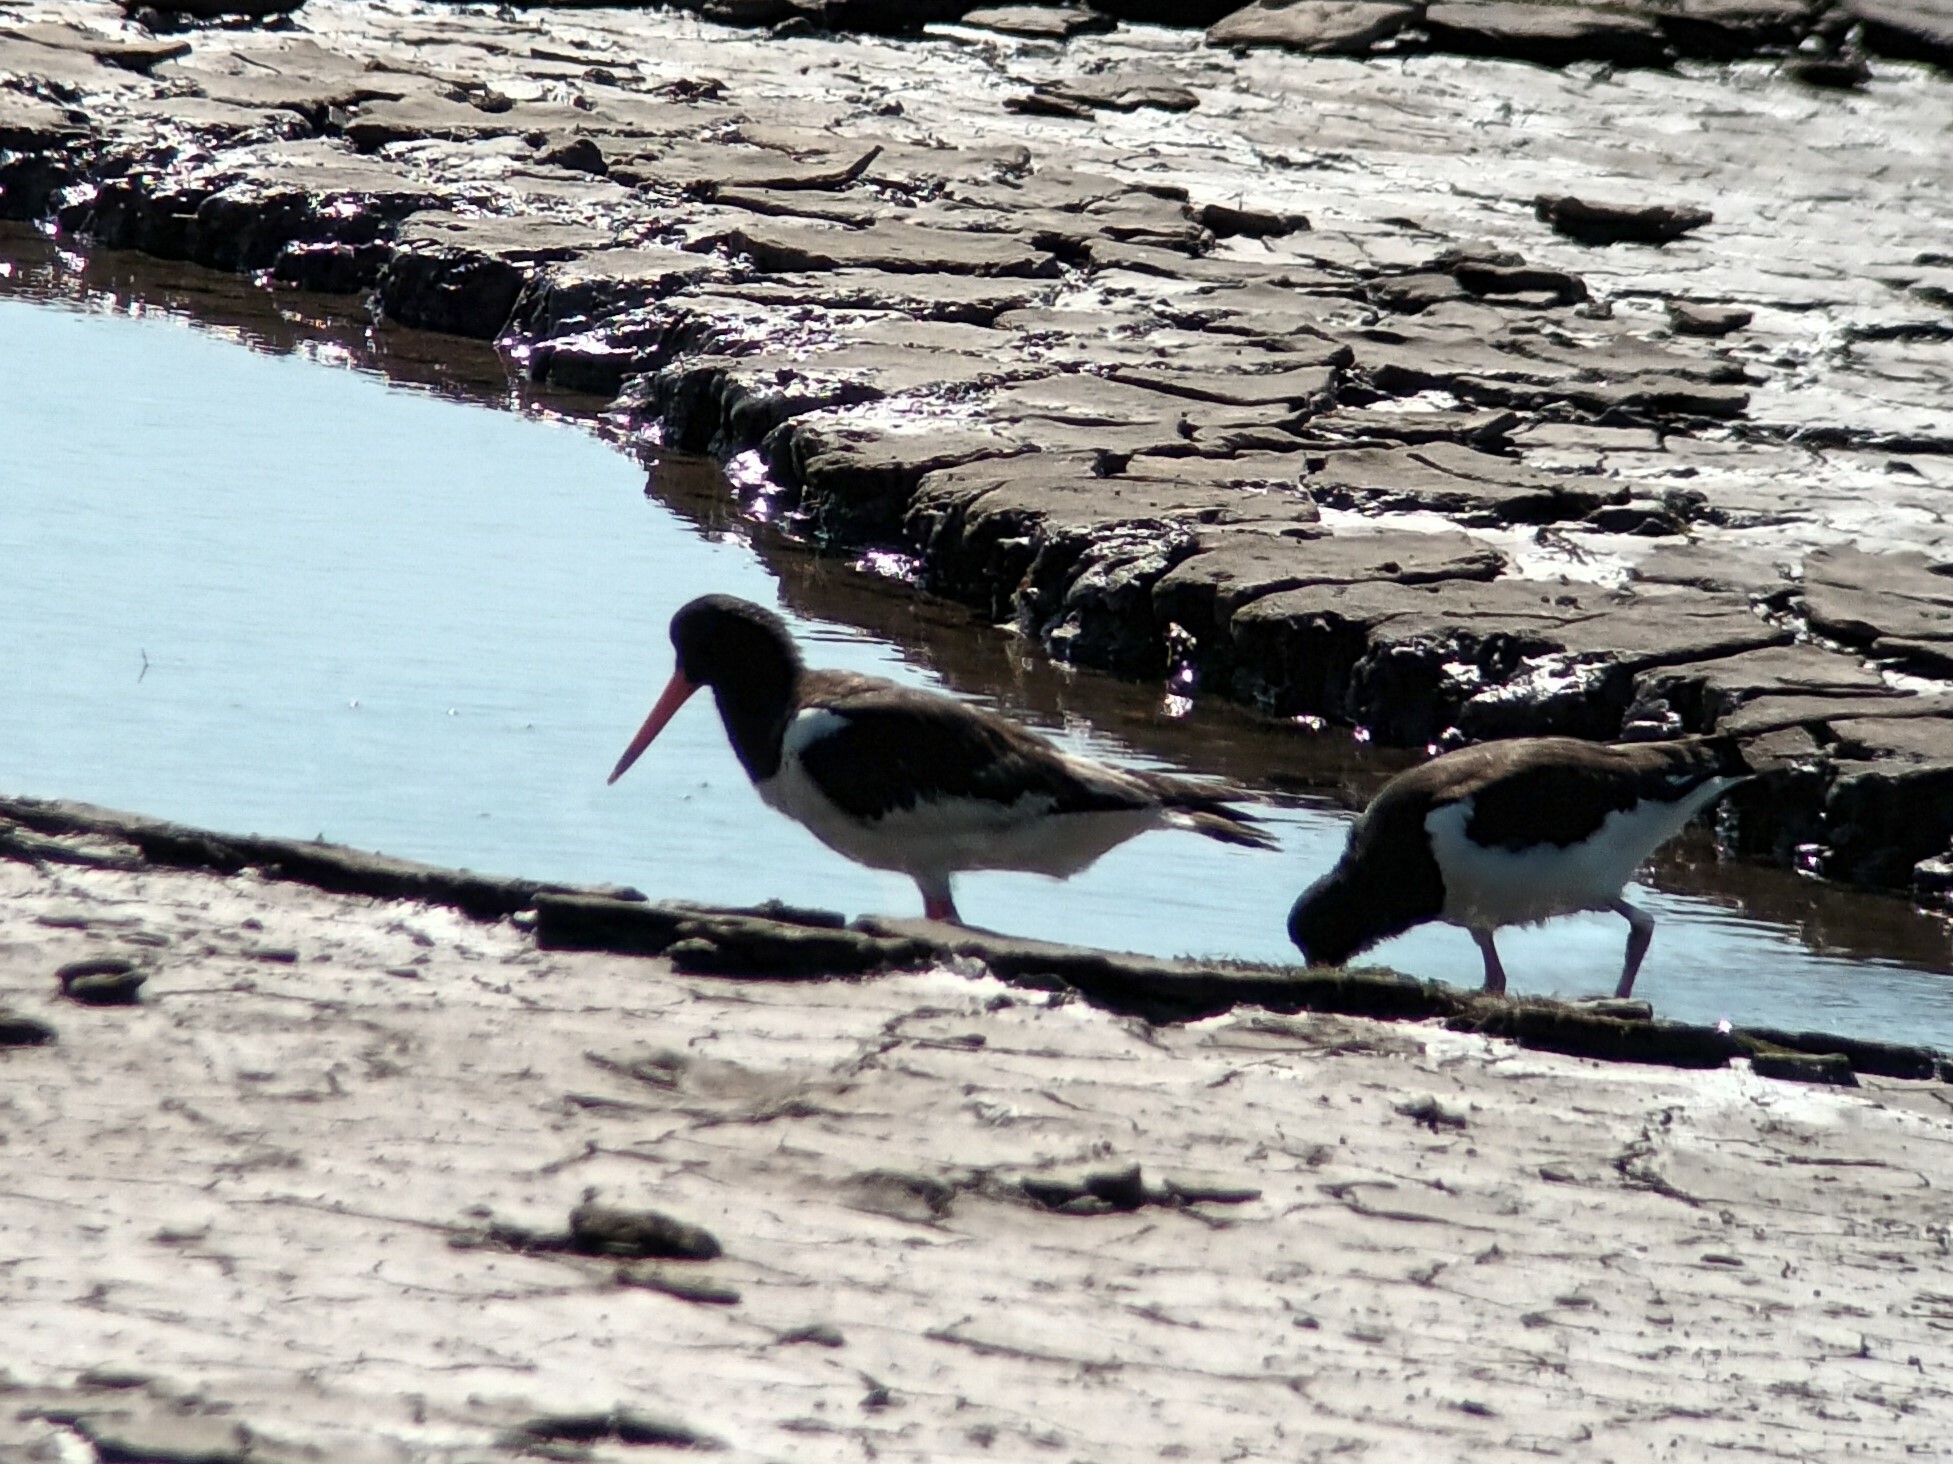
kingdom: Animalia
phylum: Chordata
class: Aves
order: Charadriiformes
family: Haematopodidae
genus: Haematopus
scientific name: Haematopus ostralegus
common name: Eurasian oystercatcher
